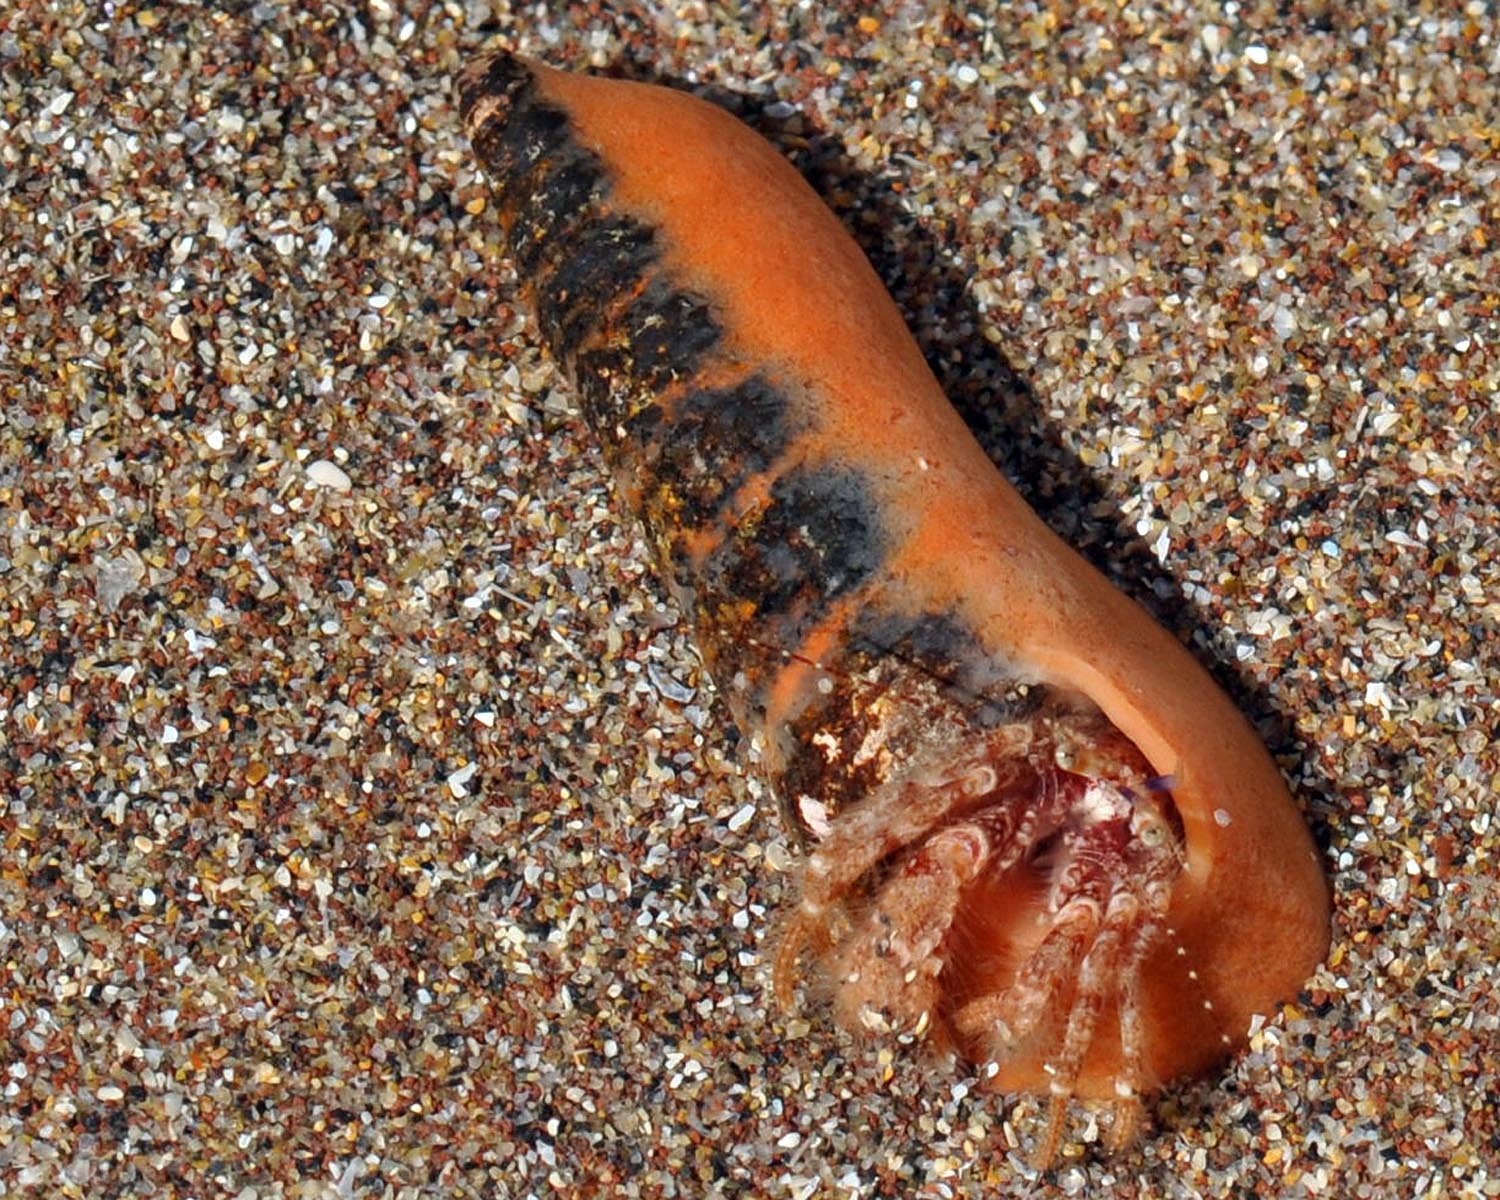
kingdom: Animalia
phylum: Arthropoda
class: Malacostraca
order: Decapoda
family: Paguridae
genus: Pagurus
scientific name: Pagurus cuanensis
